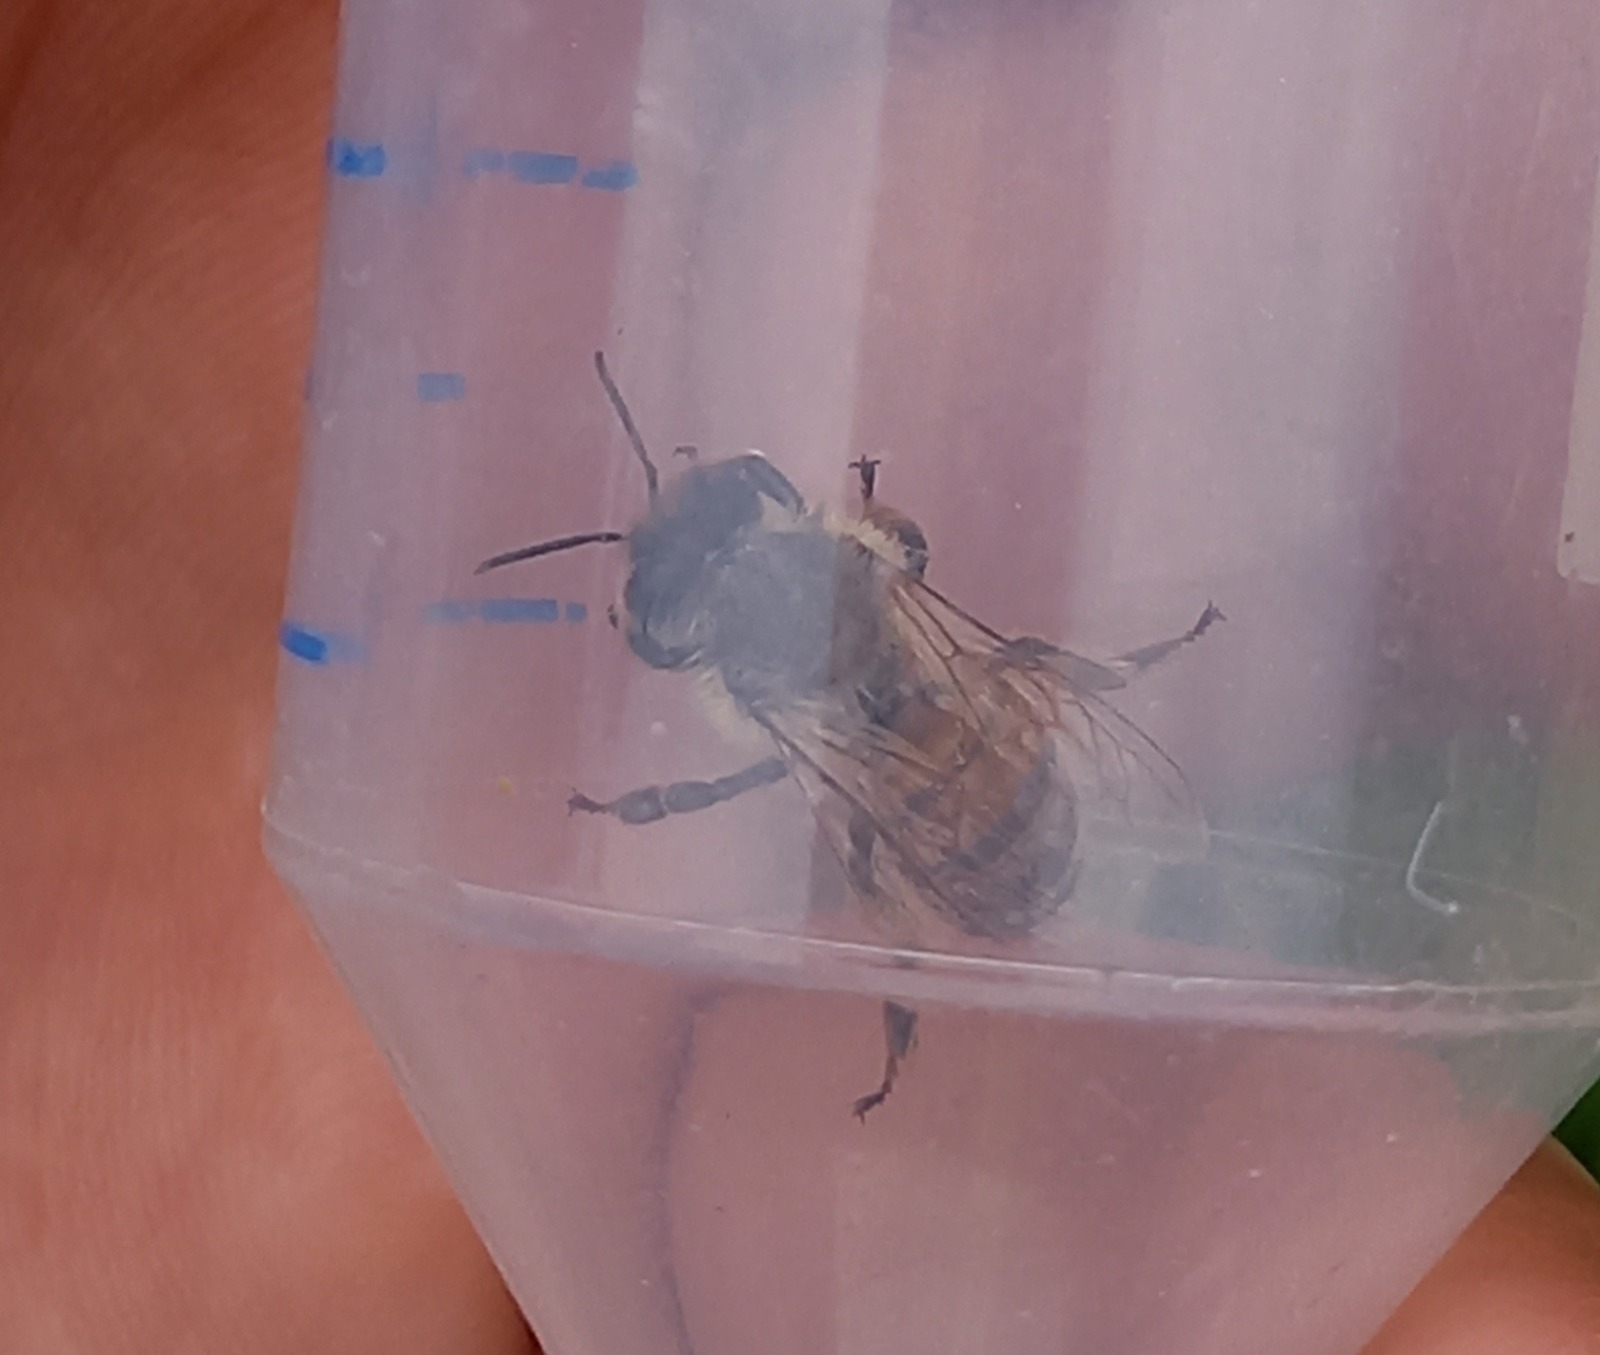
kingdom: Animalia
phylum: Arthropoda
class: Insecta
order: Hymenoptera
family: Apidae
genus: Apis
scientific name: Apis mellifera
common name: Honey bee
